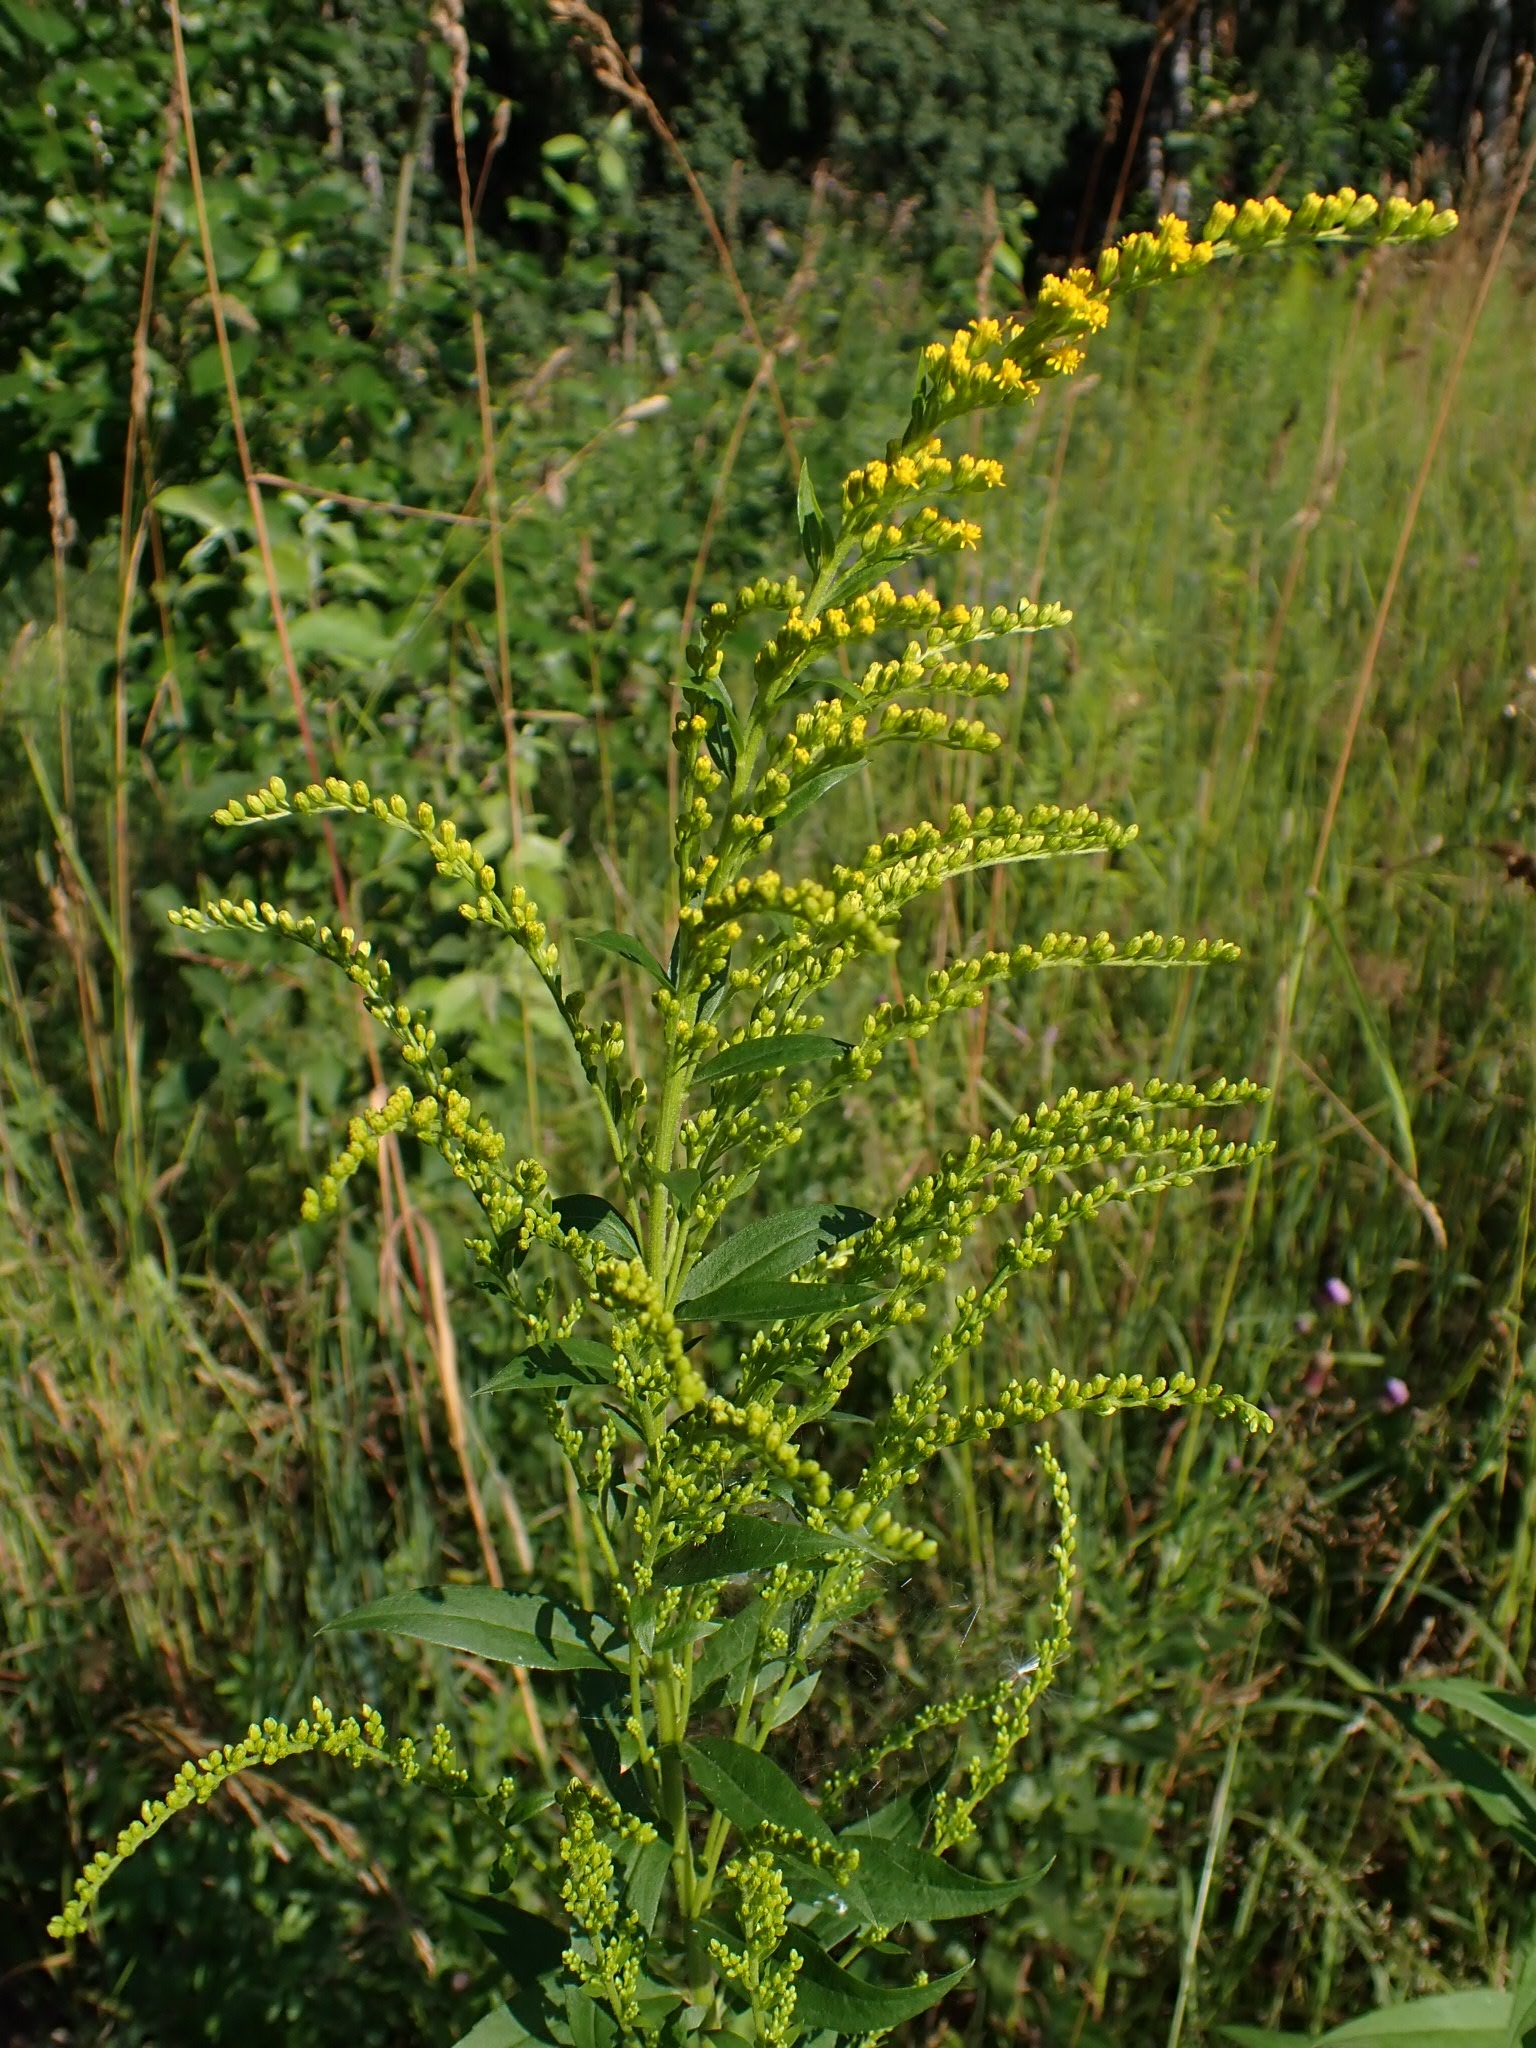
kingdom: Plantae
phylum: Tracheophyta
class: Magnoliopsida
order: Asterales
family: Asteraceae
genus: Solidago
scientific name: Solidago canadensis
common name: Canada goldenrod
